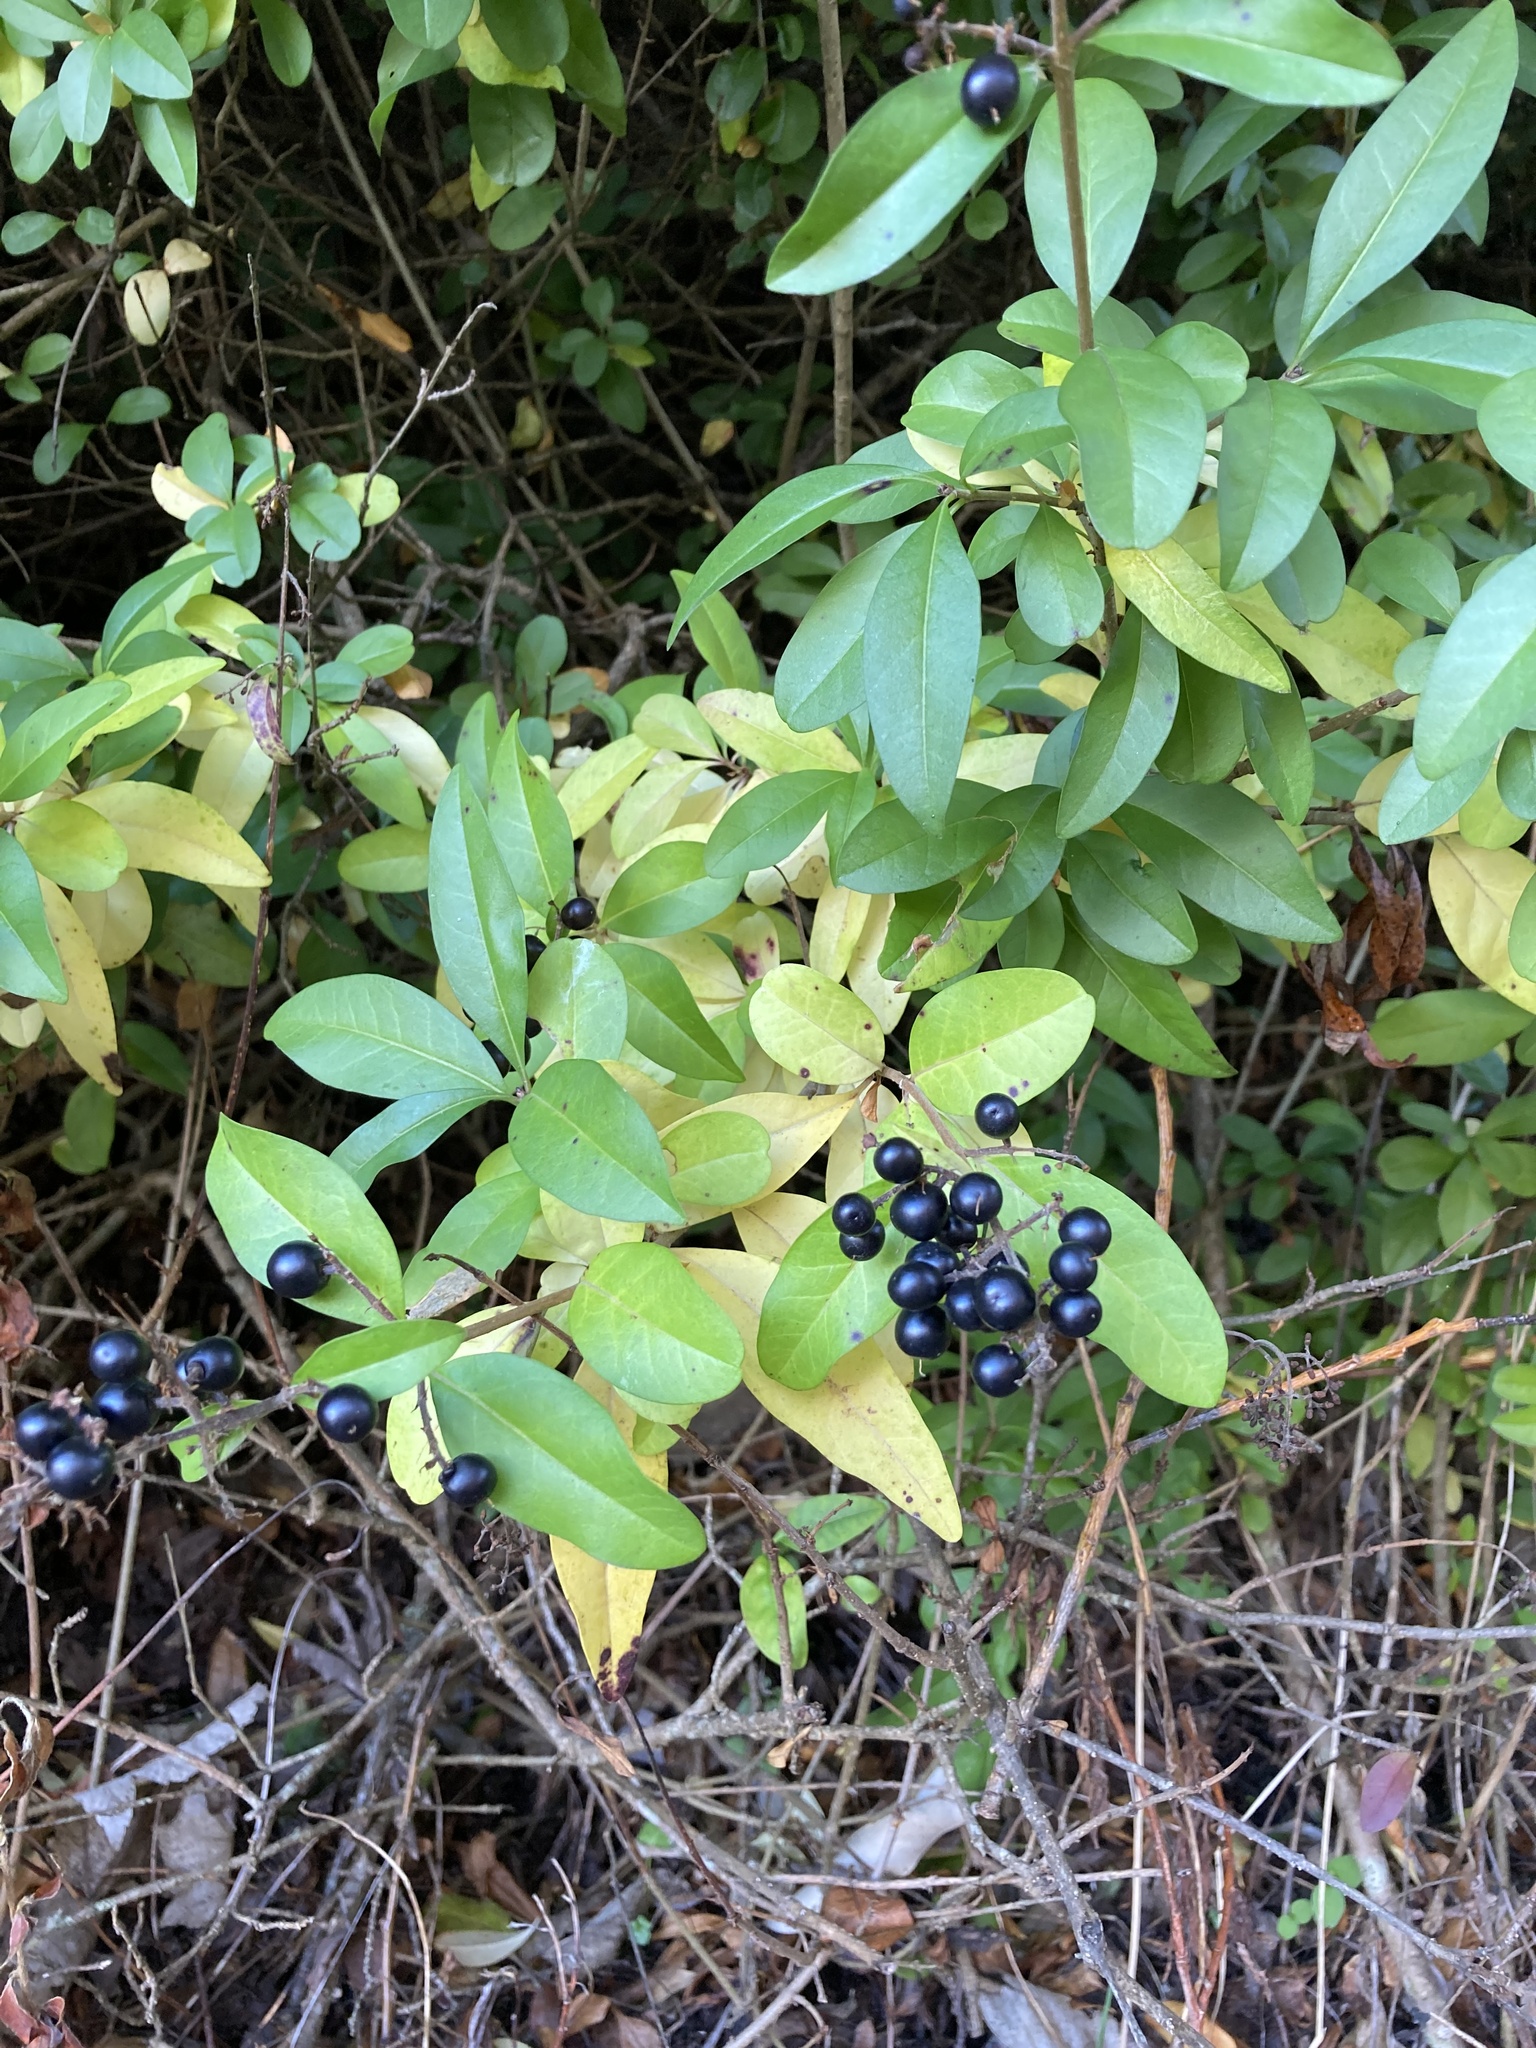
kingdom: Plantae
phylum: Tracheophyta
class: Magnoliopsida
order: Lamiales
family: Oleaceae
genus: Ligustrum
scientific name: Ligustrum vulgare
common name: Wild privet
